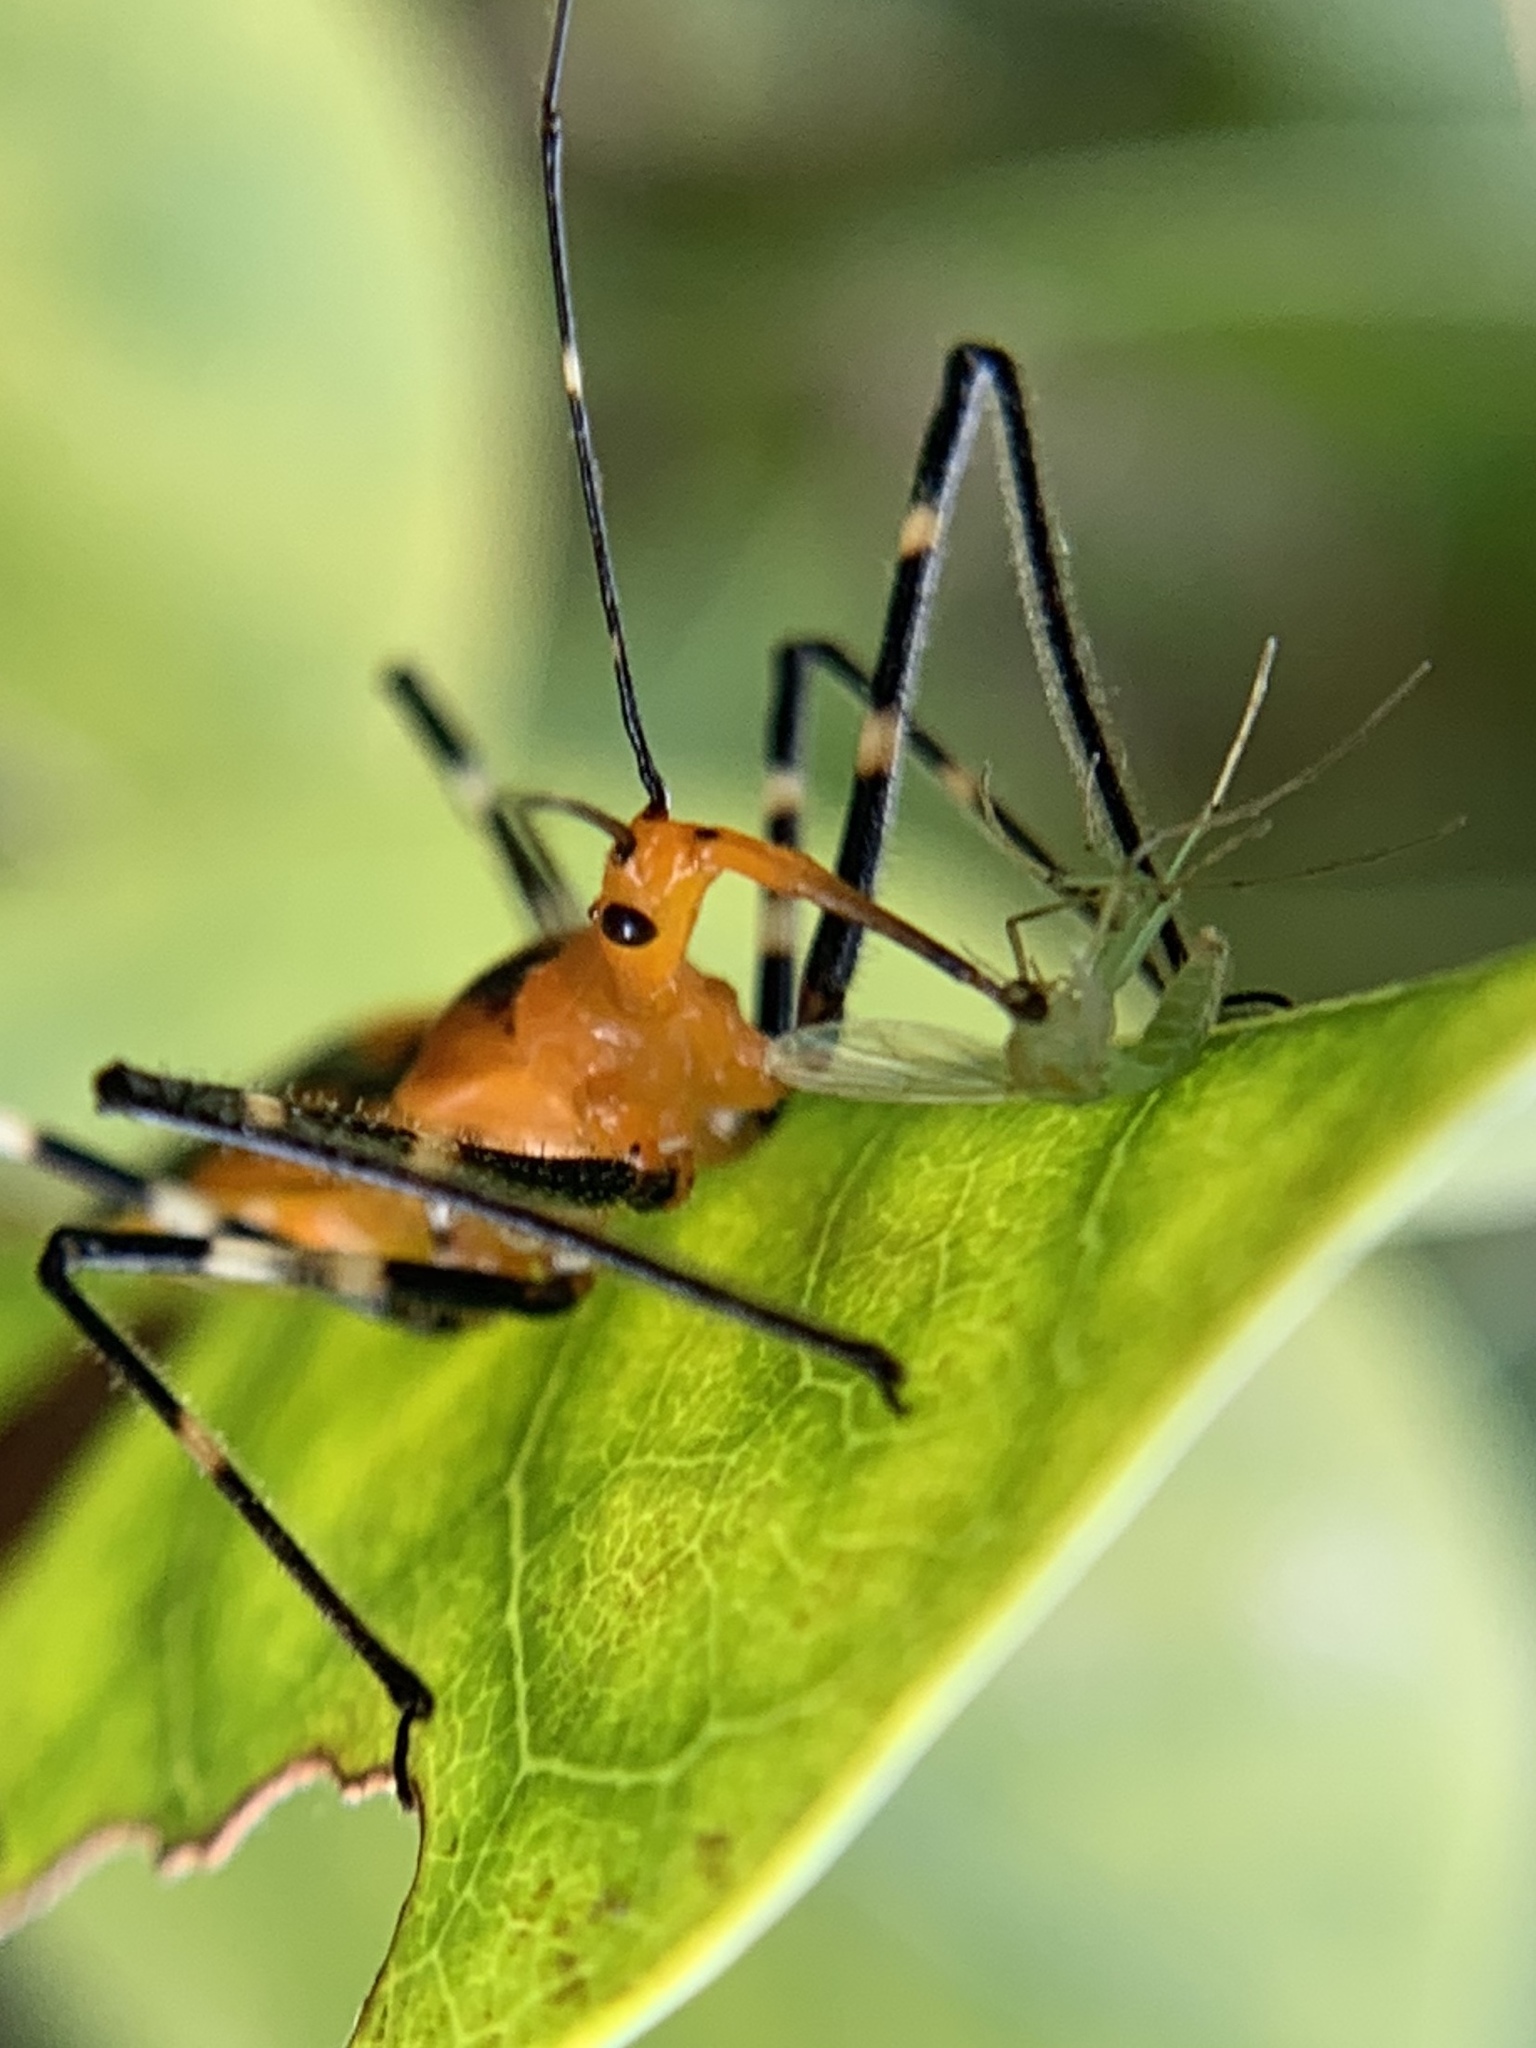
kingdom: Animalia
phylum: Arthropoda
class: Insecta
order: Hemiptera
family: Reduviidae
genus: Zelus
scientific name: Zelus longipes
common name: Milkweed assassin bug
